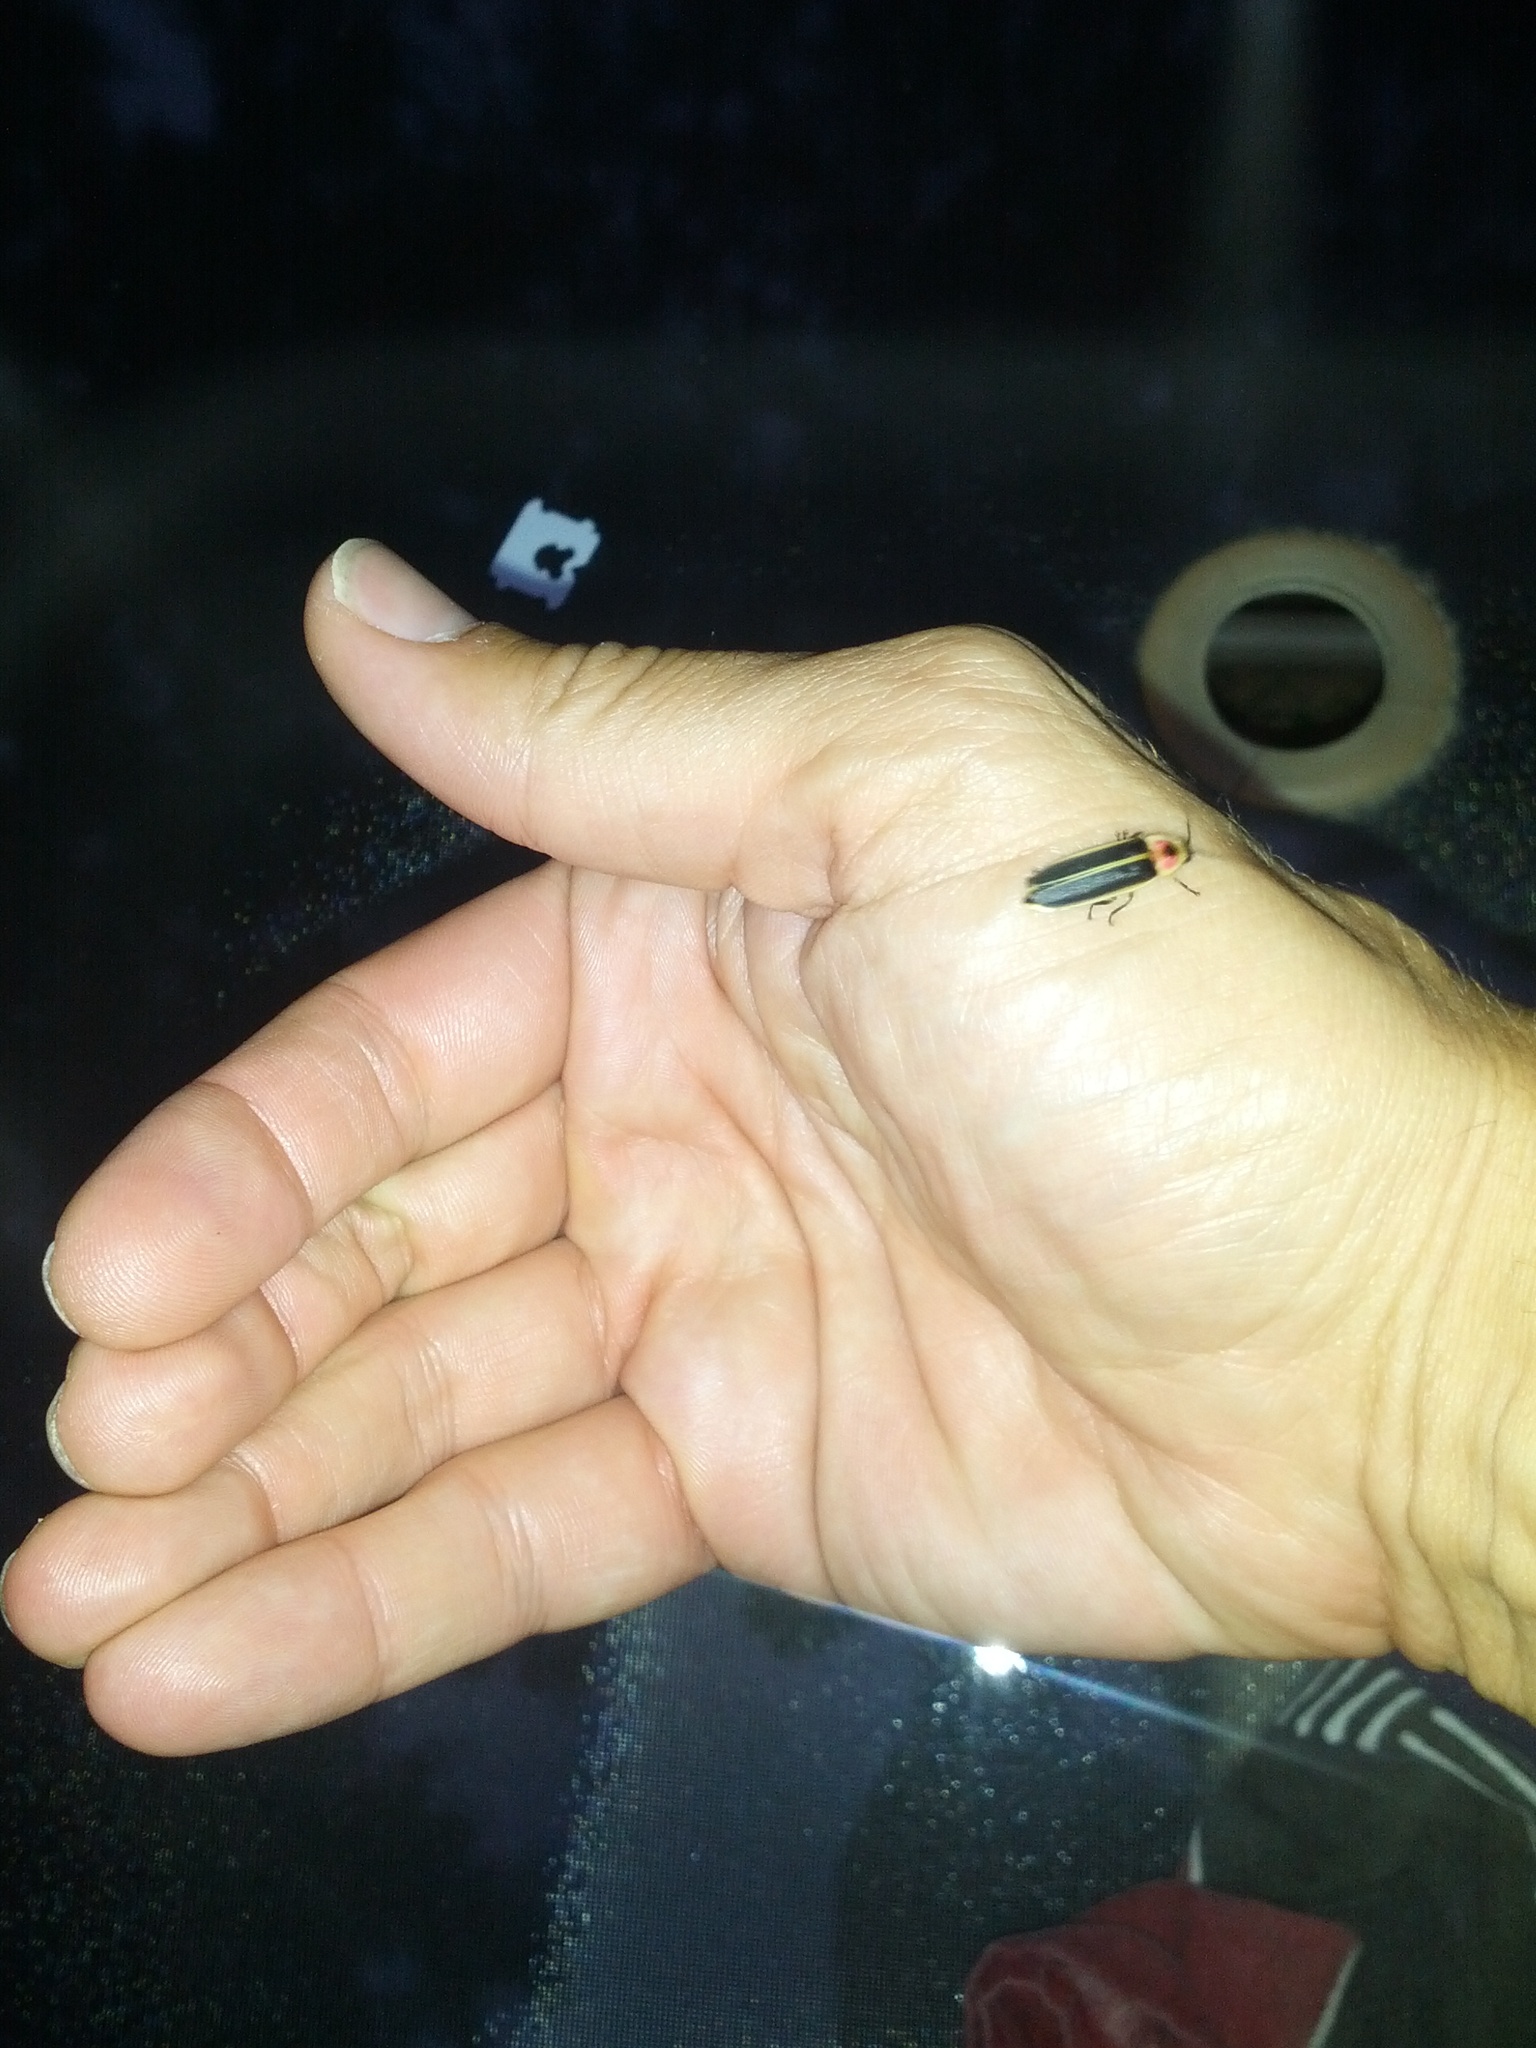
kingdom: Animalia
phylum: Arthropoda
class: Insecta
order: Coleoptera
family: Lampyridae
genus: Photinus
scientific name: Photinus pyralis
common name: Big dipper firefly
